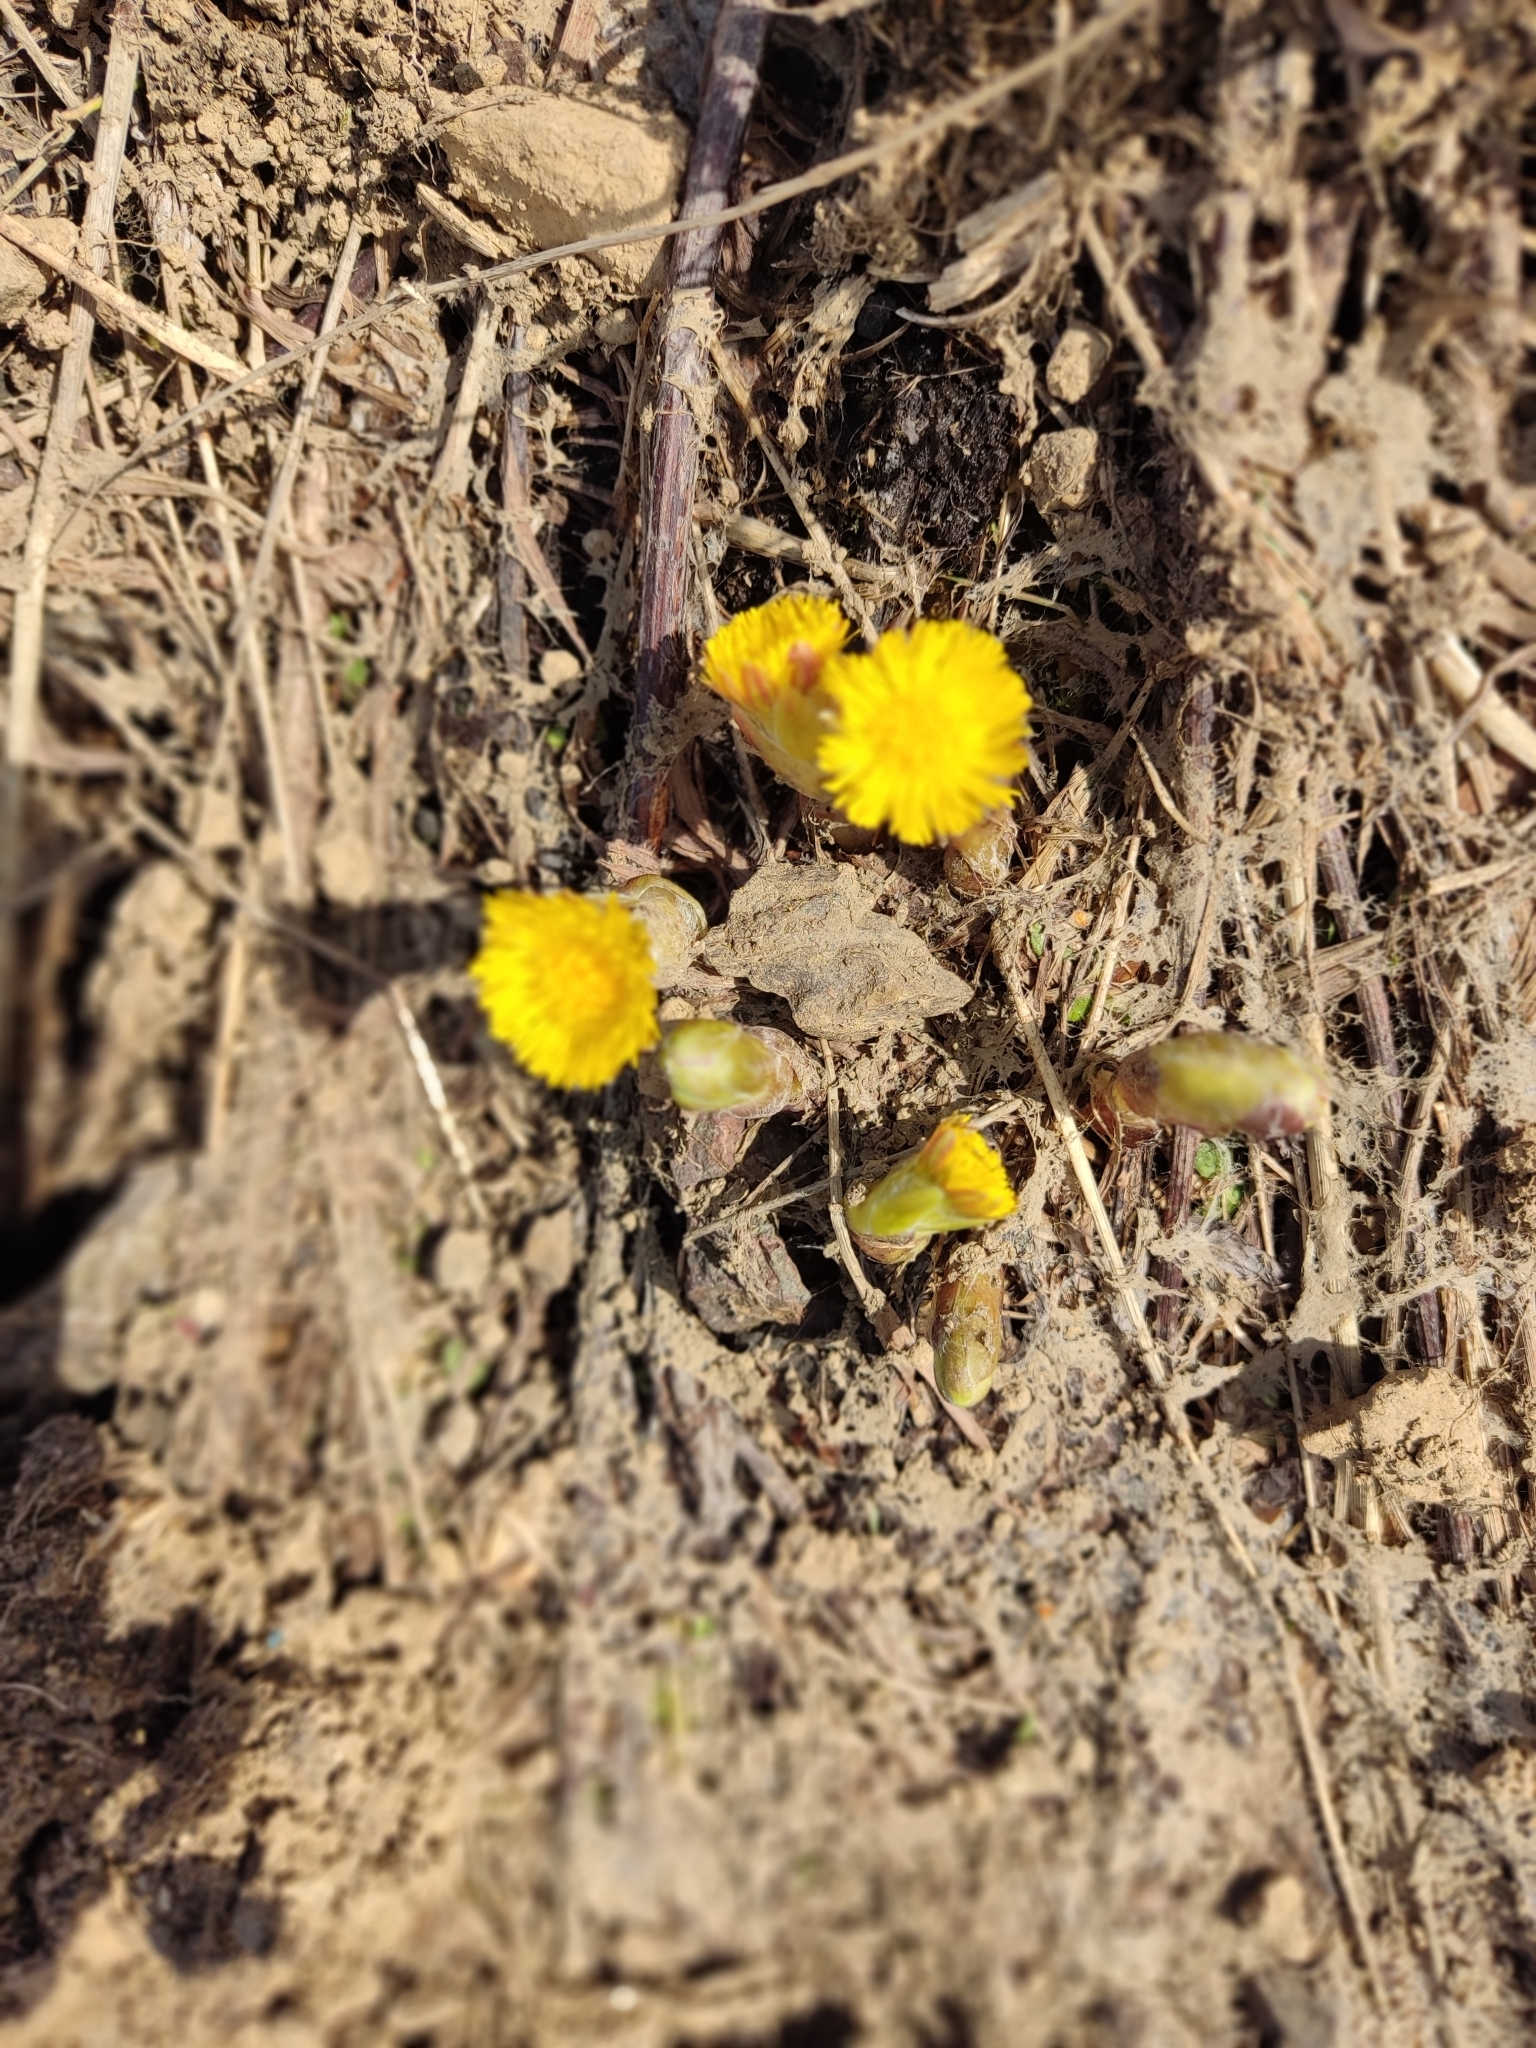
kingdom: Plantae
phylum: Tracheophyta
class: Magnoliopsida
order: Asterales
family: Asteraceae
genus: Tussilago
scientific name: Tussilago farfara
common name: Coltsfoot
